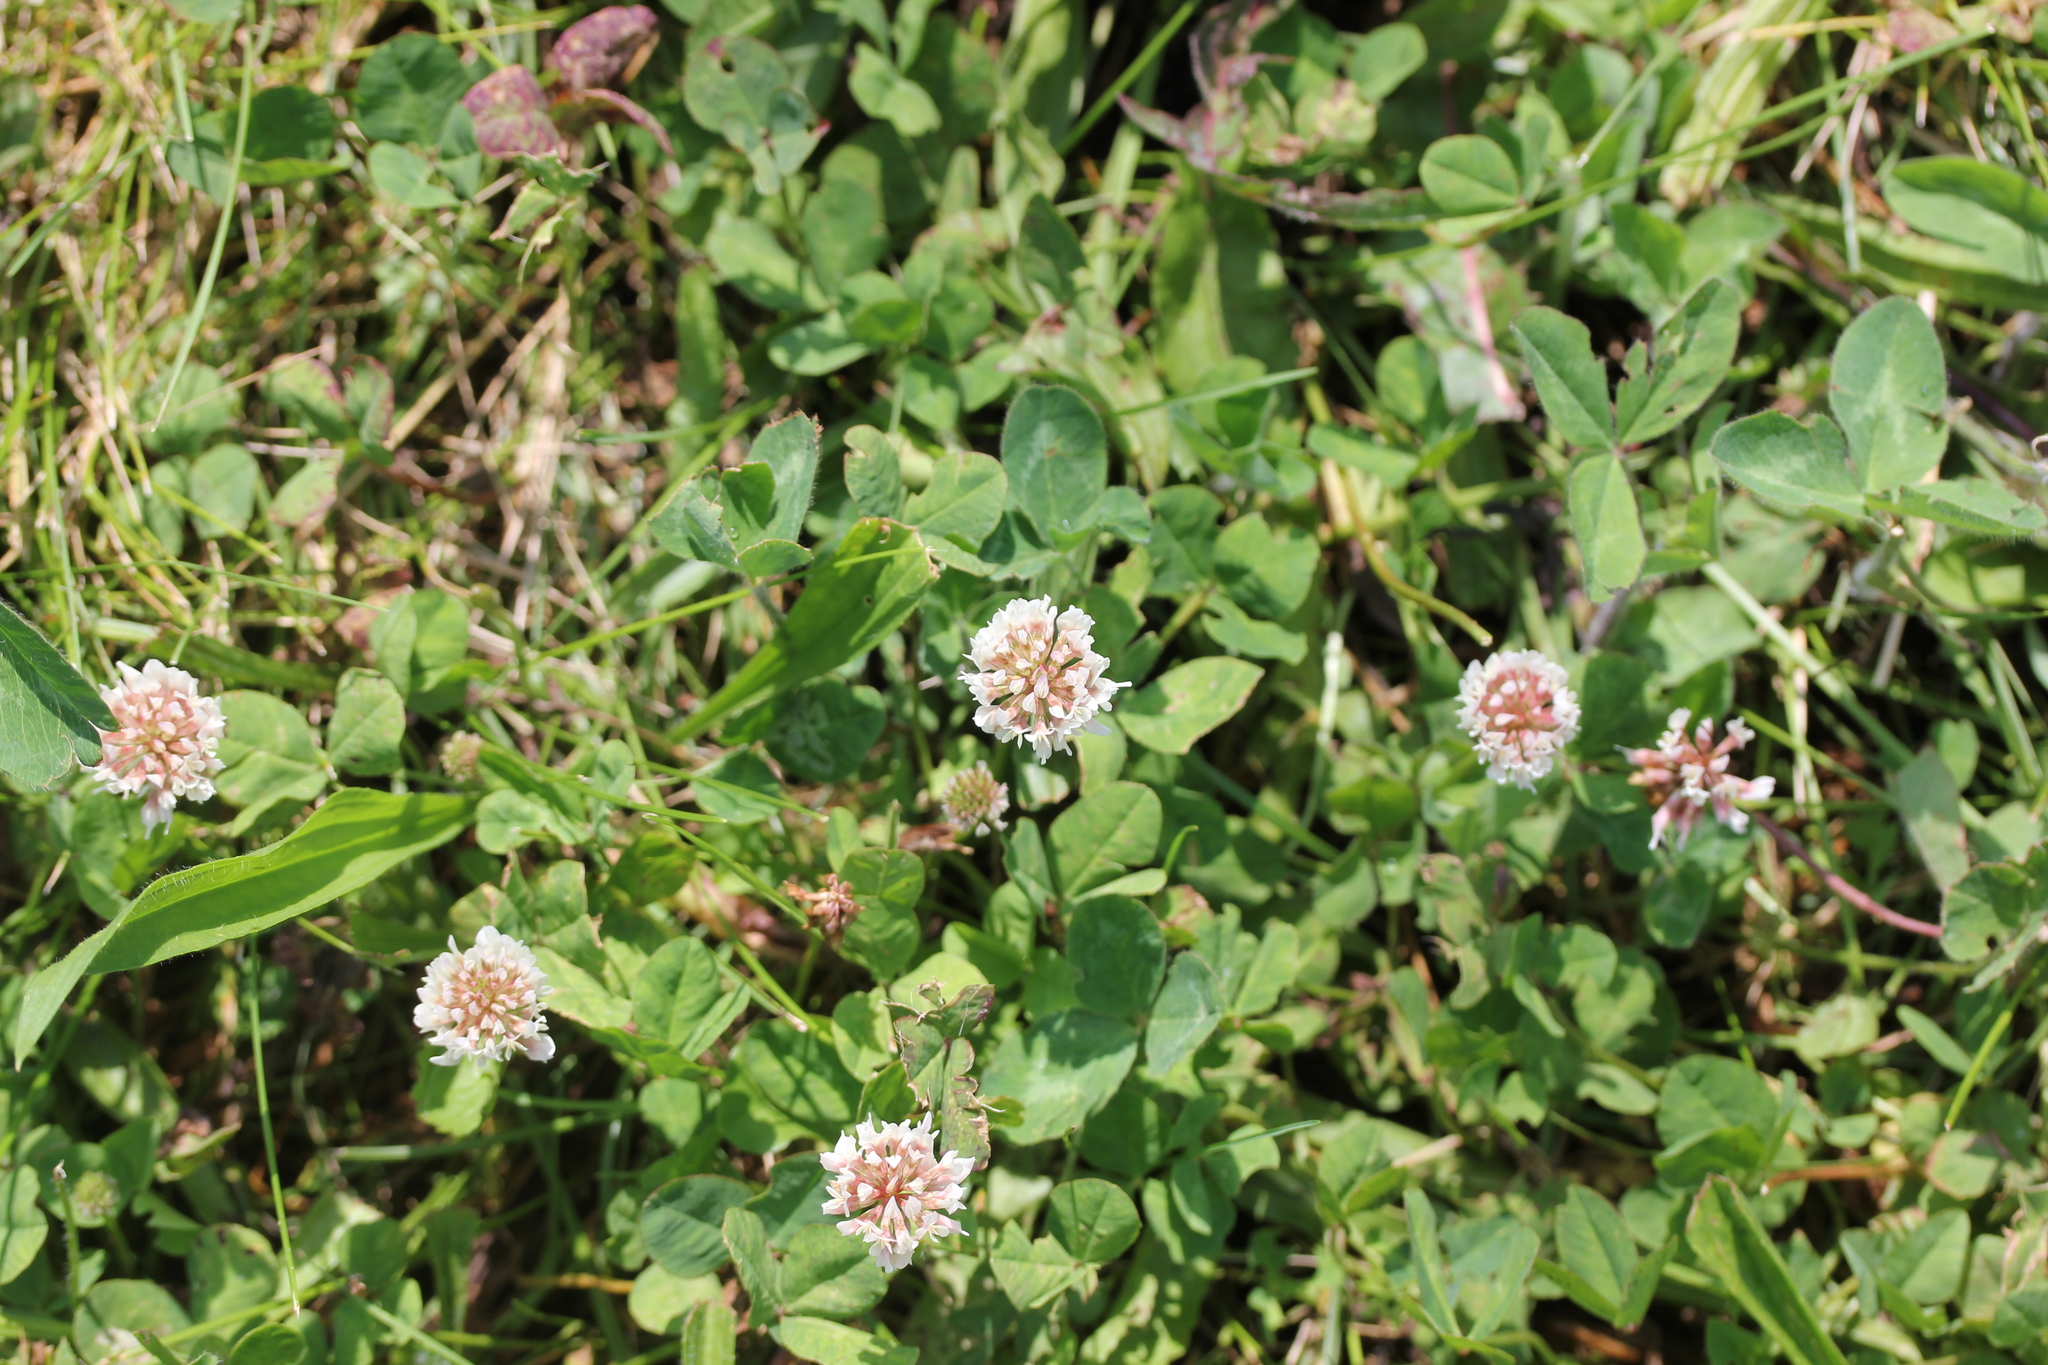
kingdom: Plantae
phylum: Tracheophyta
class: Magnoliopsida
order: Fabales
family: Fabaceae
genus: Trifolium
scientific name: Trifolium repens
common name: White clover
